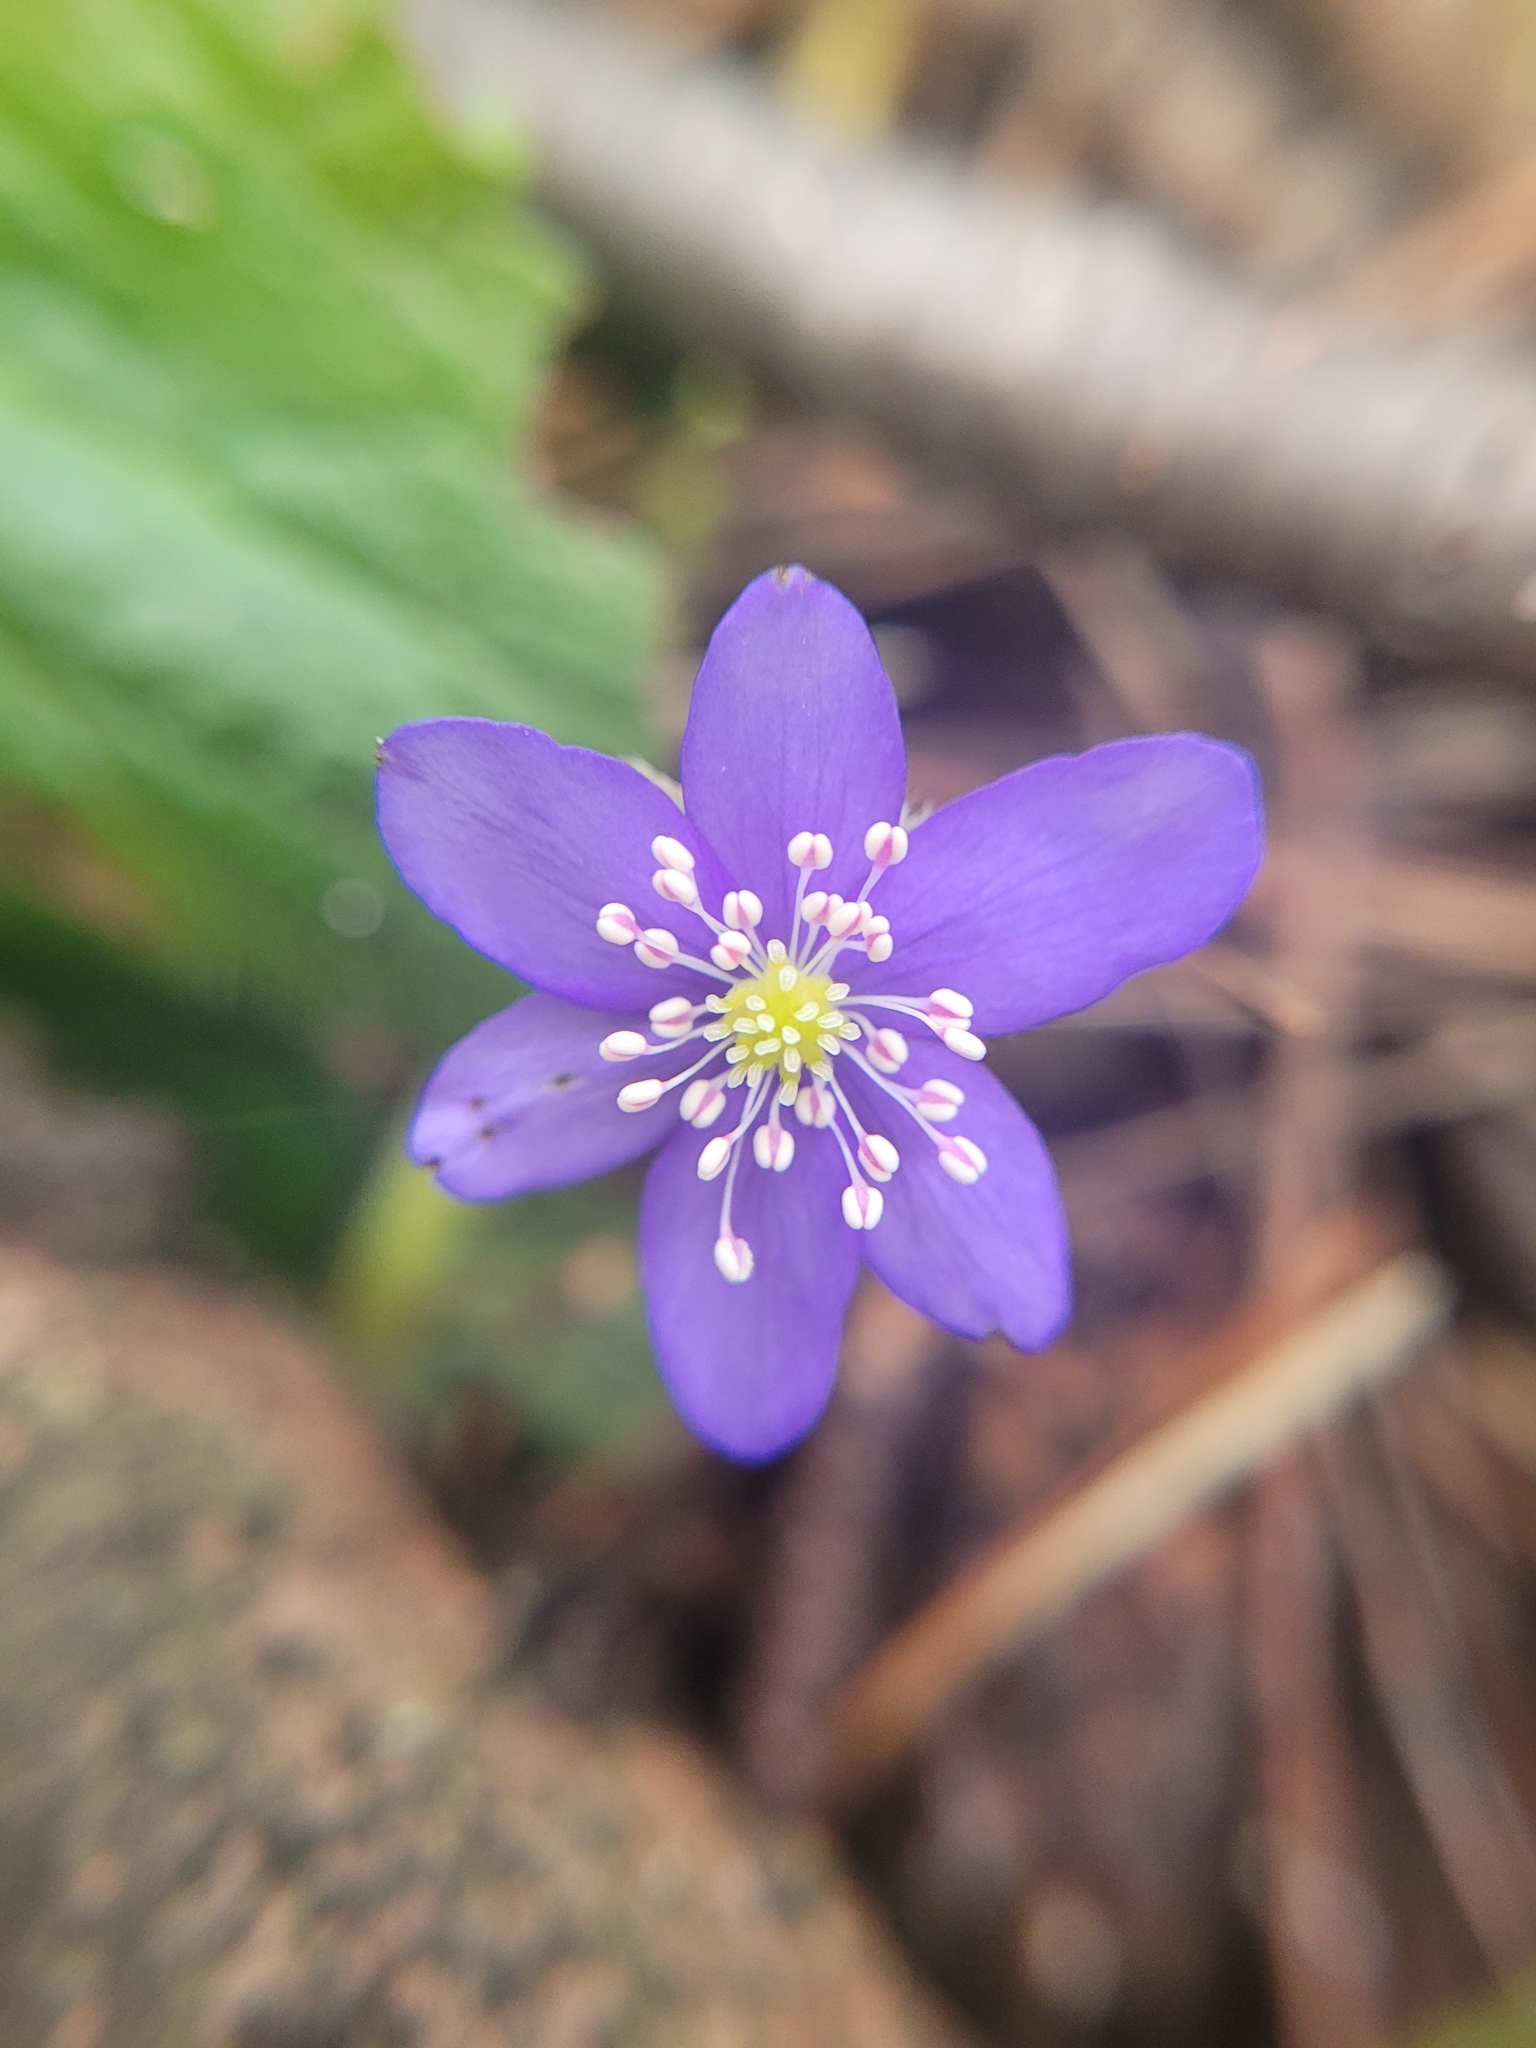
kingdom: Plantae
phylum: Tracheophyta
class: Magnoliopsida
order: Ranunculales
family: Ranunculaceae
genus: Hepatica
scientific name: Hepatica nobilis
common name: Liverleaf
